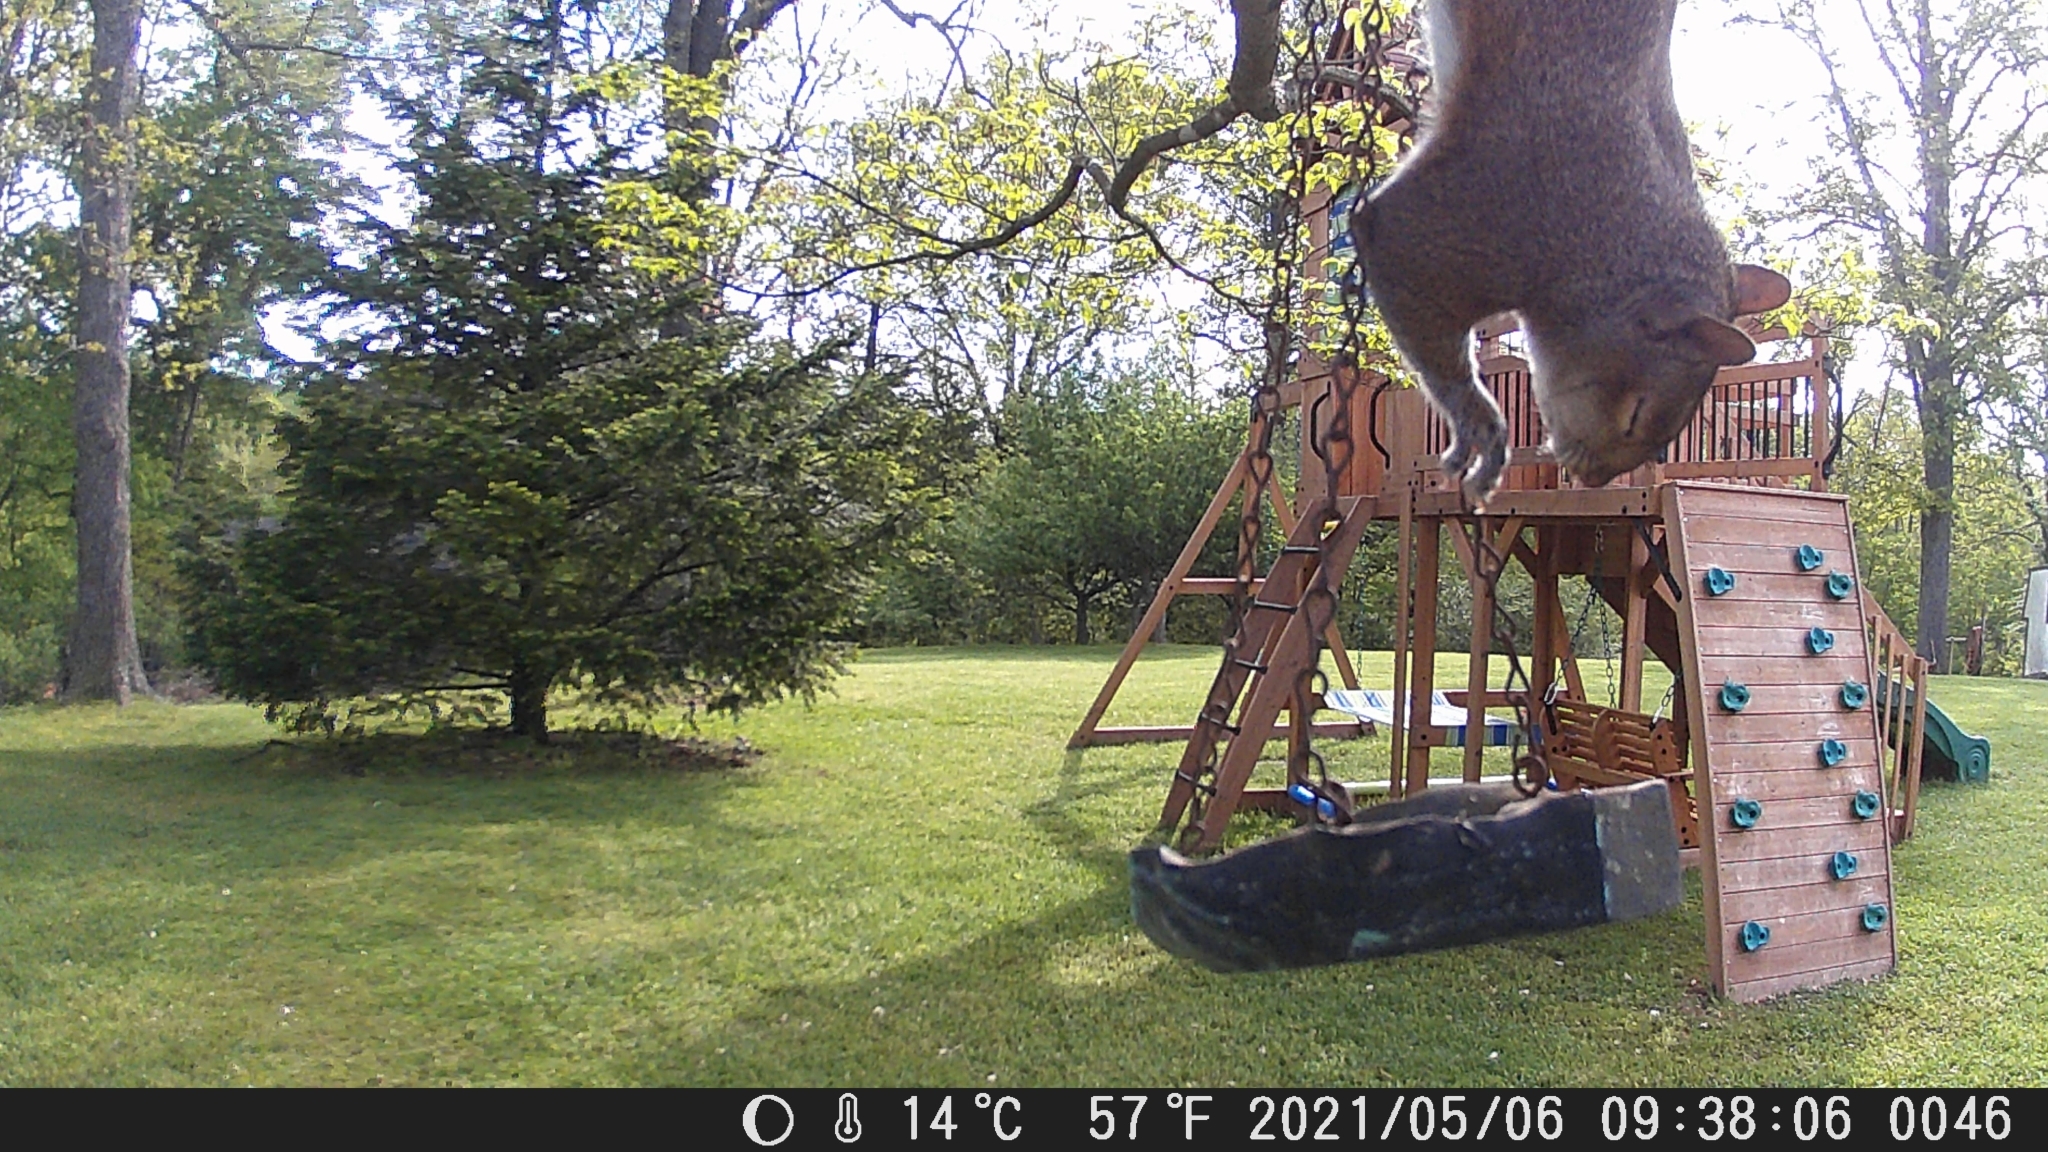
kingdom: Animalia
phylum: Chordata
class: Mammalia
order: Rodentia
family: Sciuridae
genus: Sciurus
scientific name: Sciurus carolinensis
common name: Eastern gray squirrel
